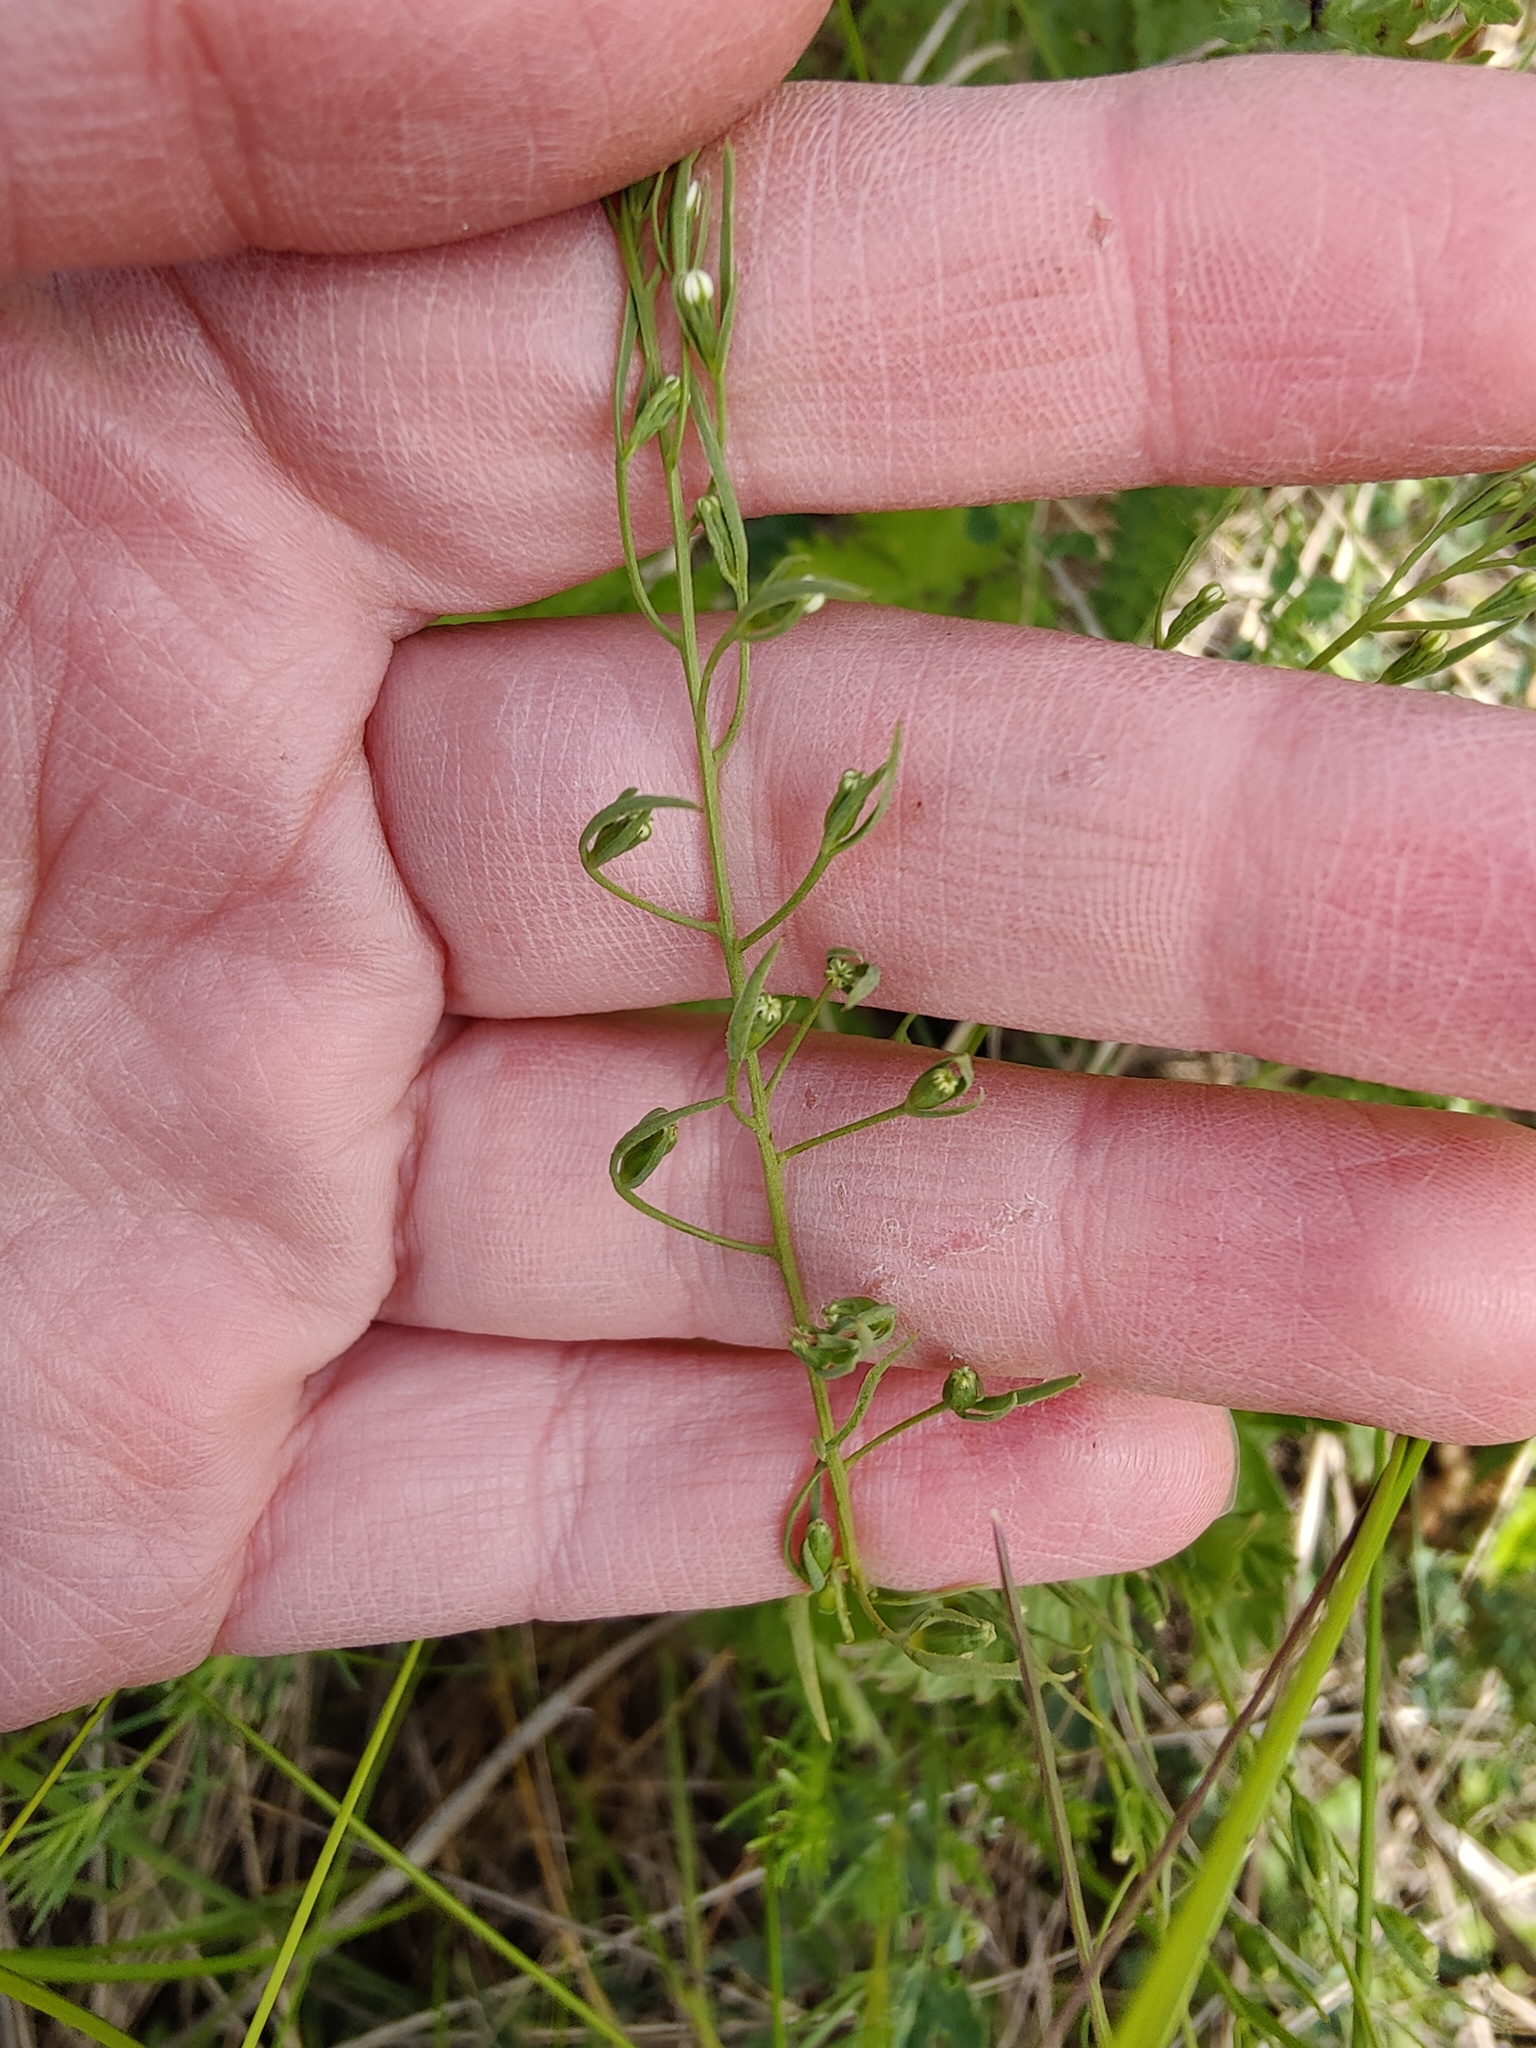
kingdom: Plantae
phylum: Tracheophyta
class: Magnoliopsida
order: Santalales
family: Thesiaceae
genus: Thesium
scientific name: Thesium ramosum
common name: Field thesium
